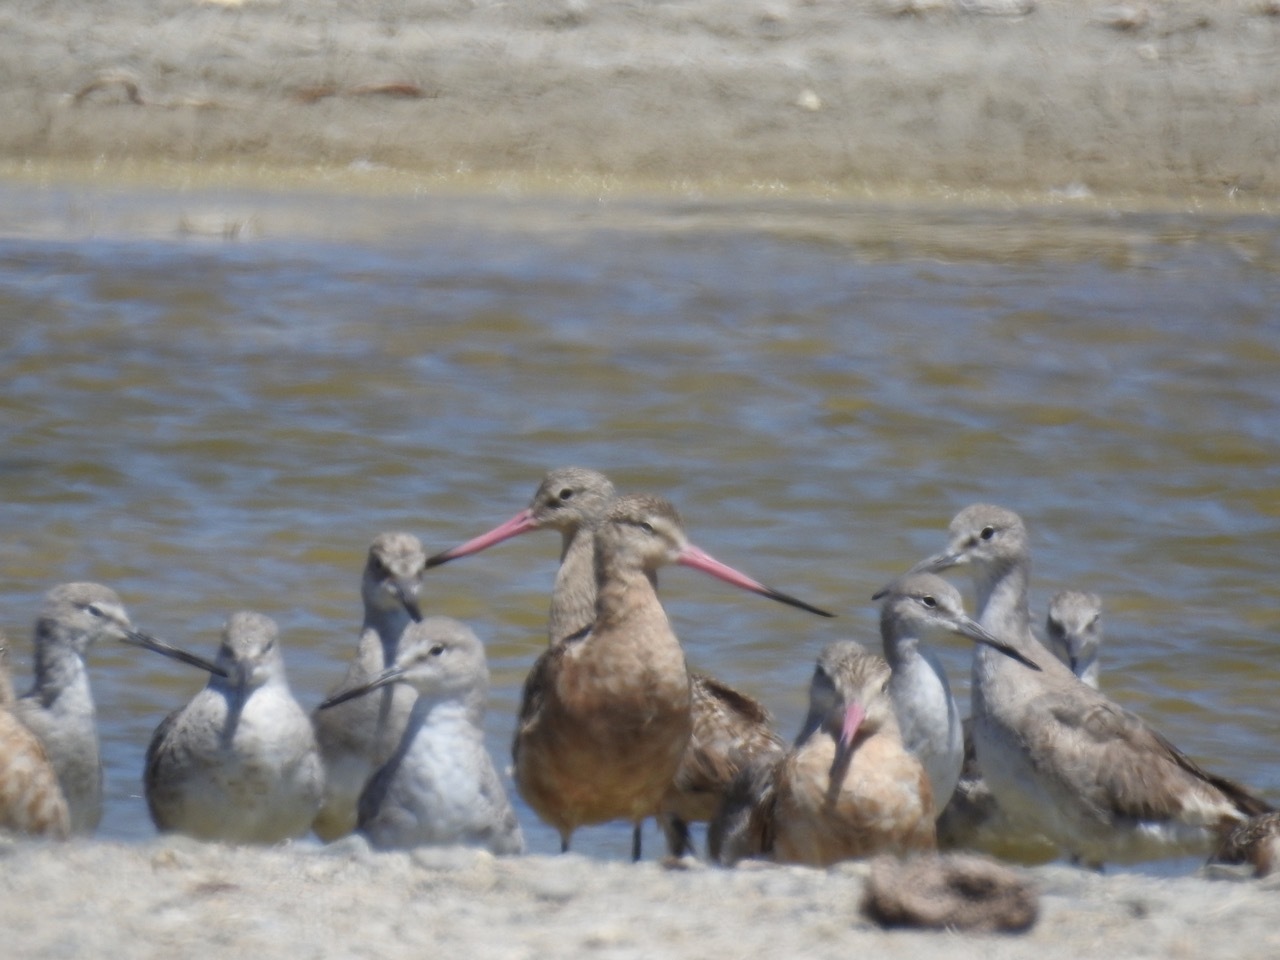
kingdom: Animalia
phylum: Chordata
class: Aves
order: Charadriiformes
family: Scolopacidae
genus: Limosa
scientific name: Limosa fedoa
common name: Marbled godwit
